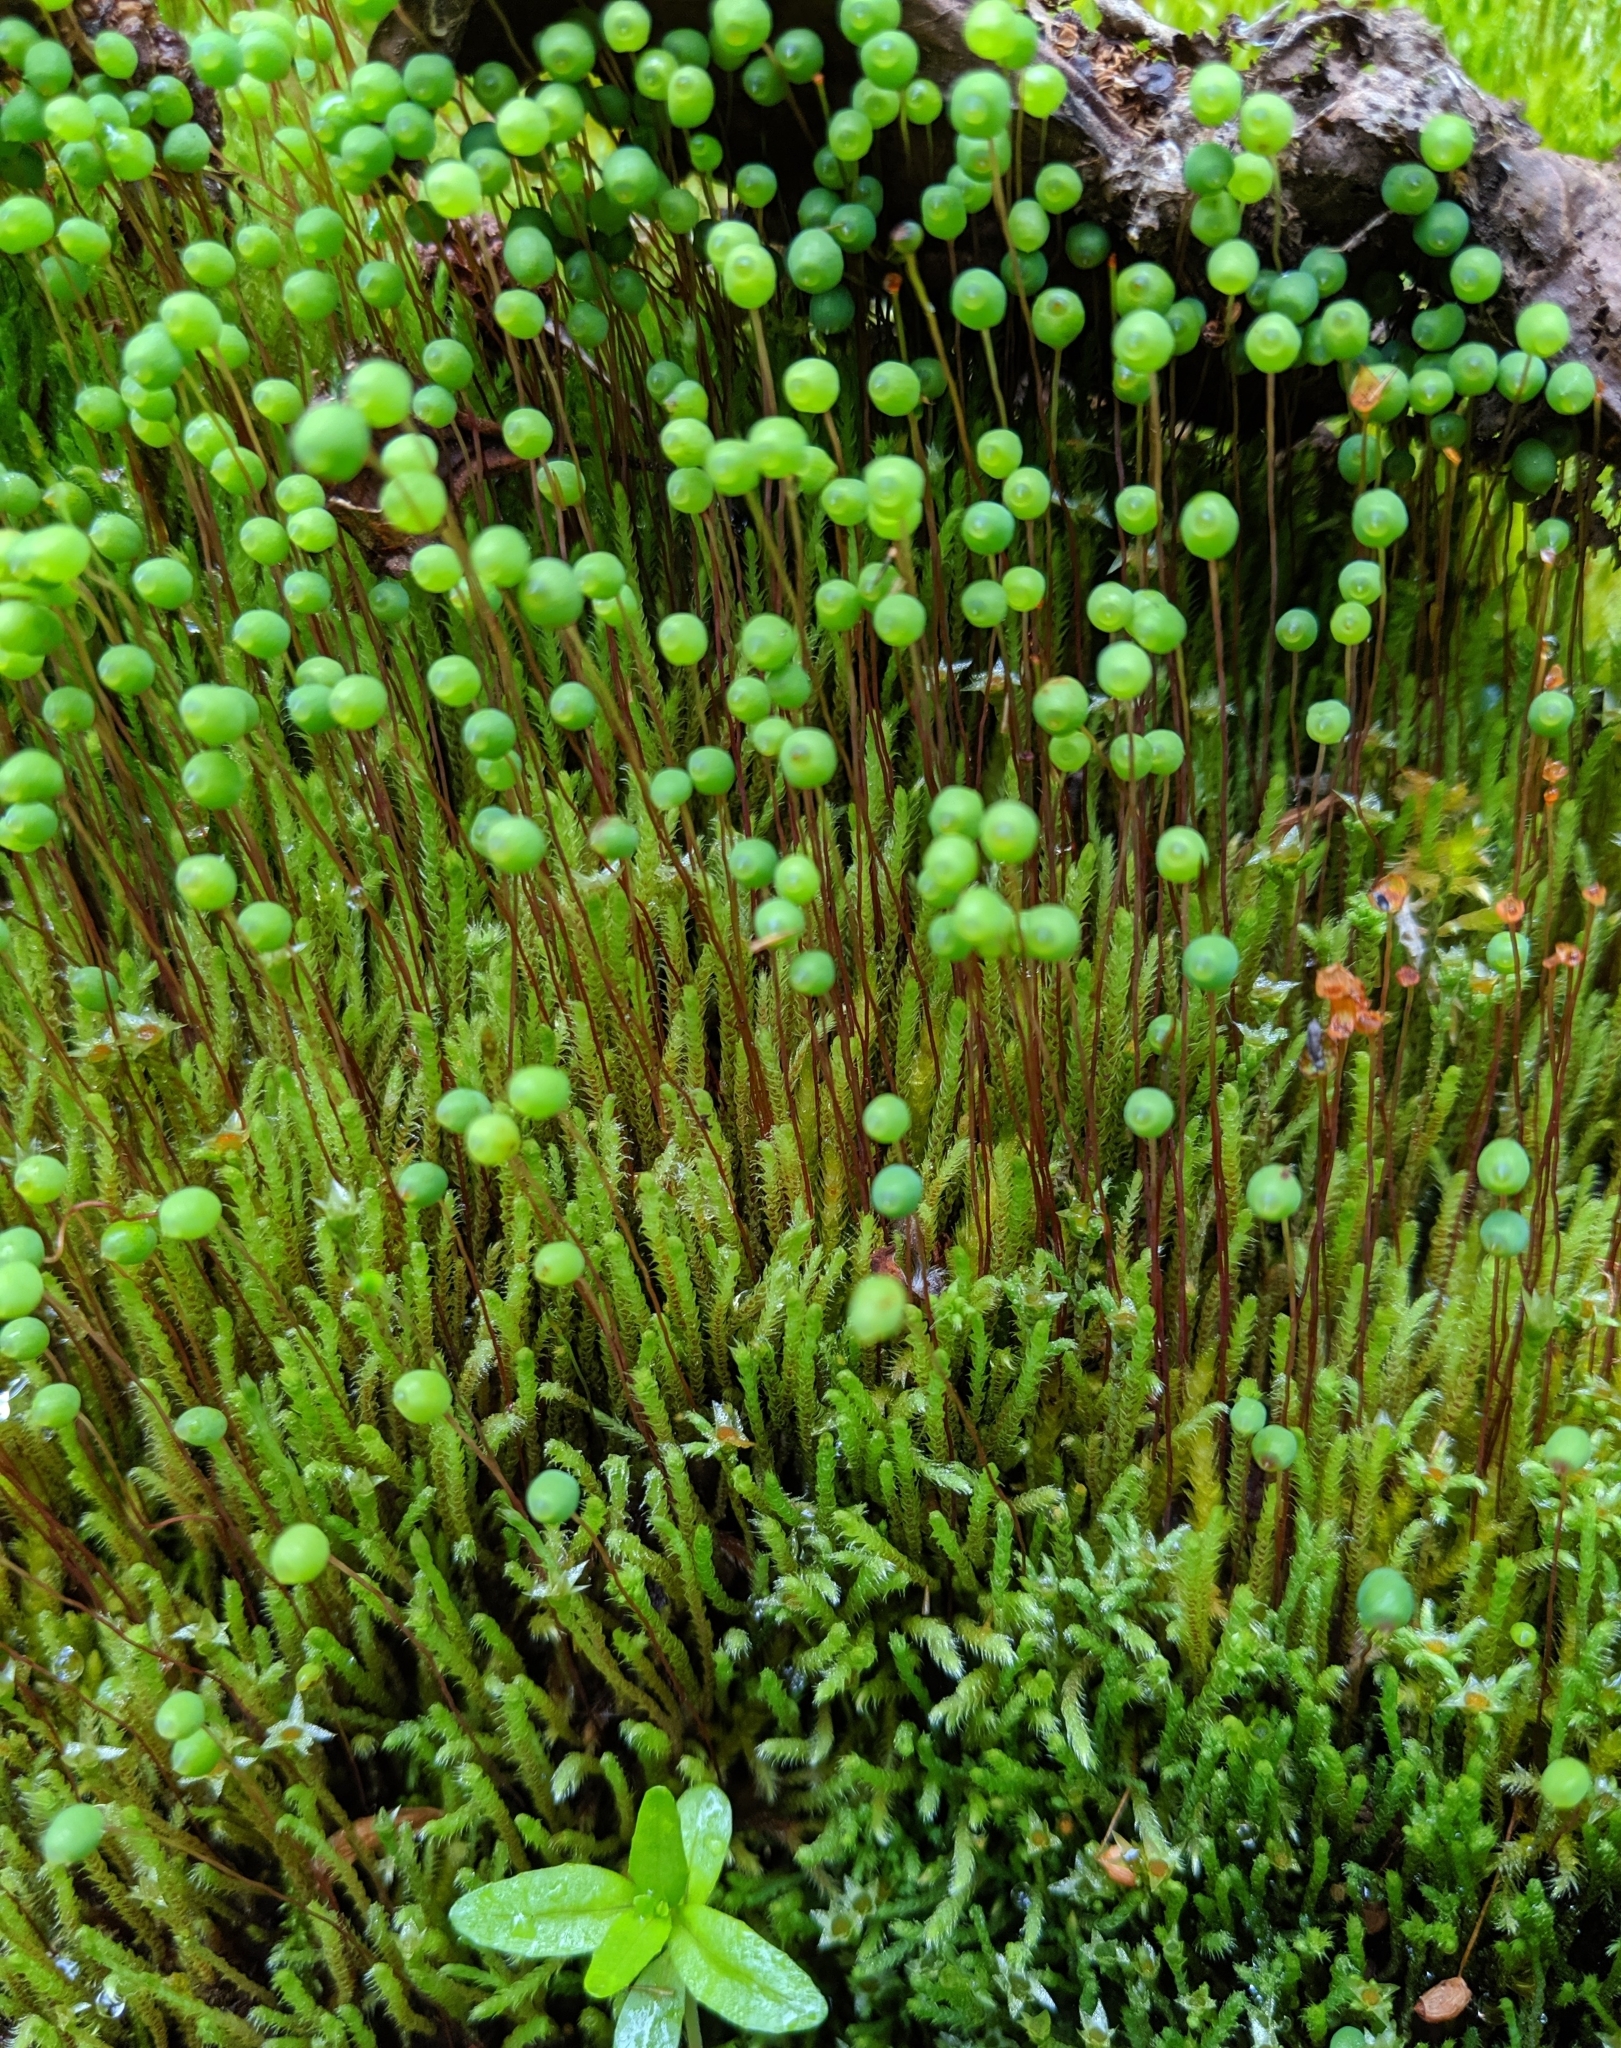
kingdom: Plantae
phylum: Bryophyta
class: Bryopsida
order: Bartramiales
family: Bartramiaceae
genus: Philonotis
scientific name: Philonotis fontana
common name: Fountain apple-moss
